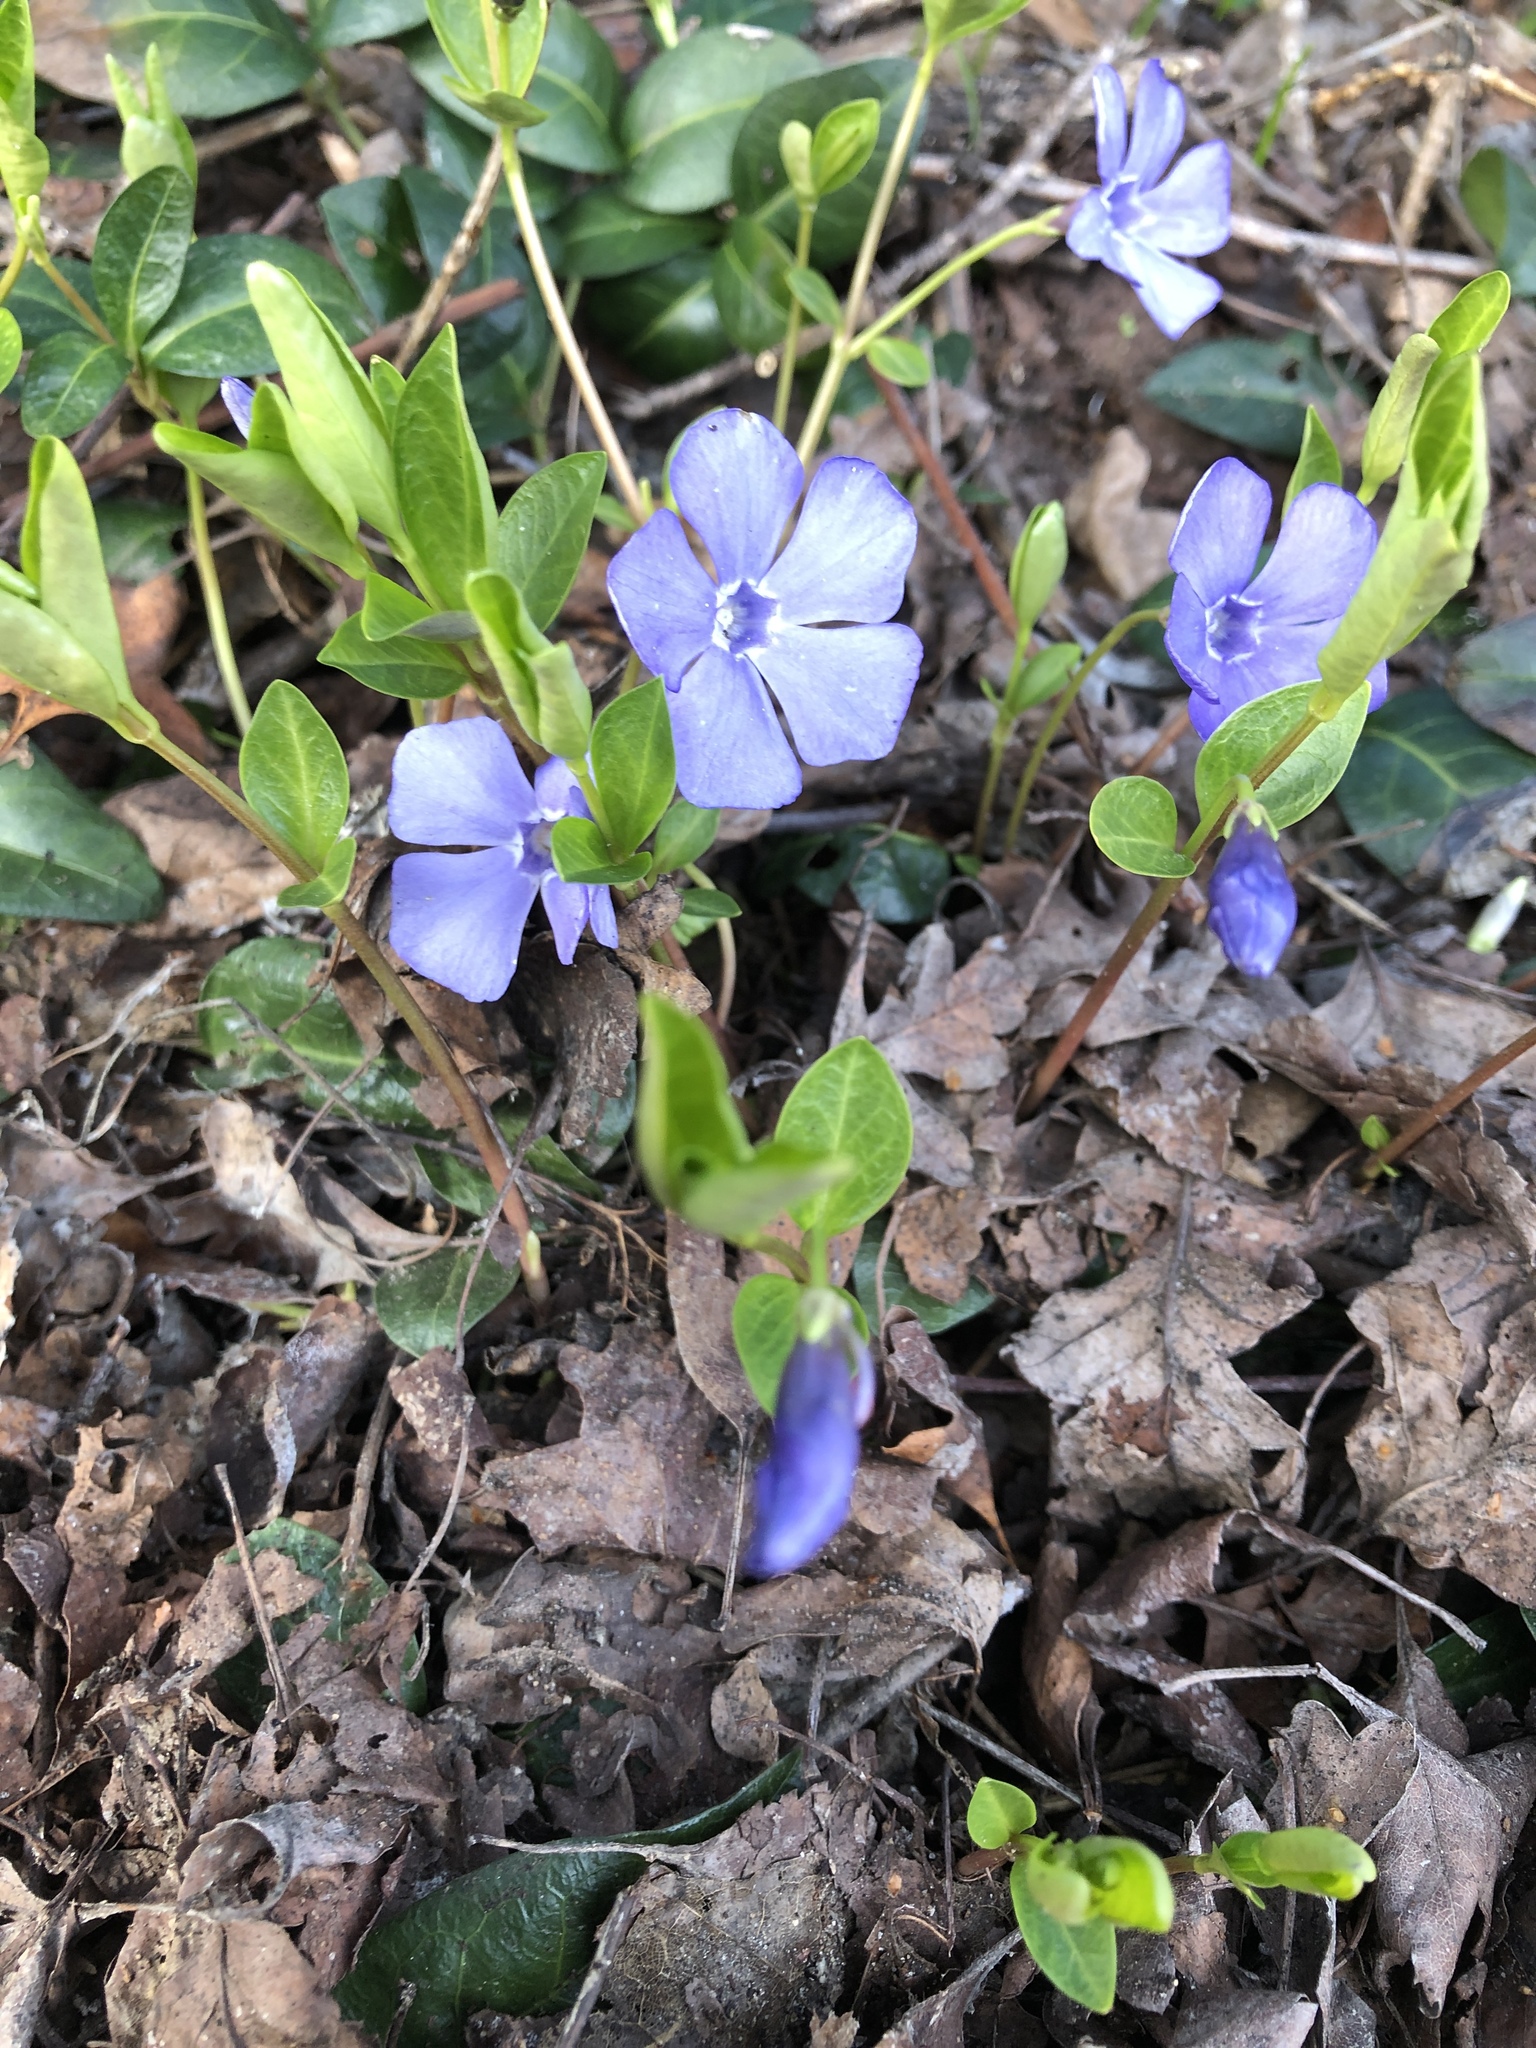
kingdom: Plantae
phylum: Tracheophyta
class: Magnoliopsida
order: Gentianales
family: Apocynaceae
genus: Vinca
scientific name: Vinca minor
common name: Lesser periwinkle
